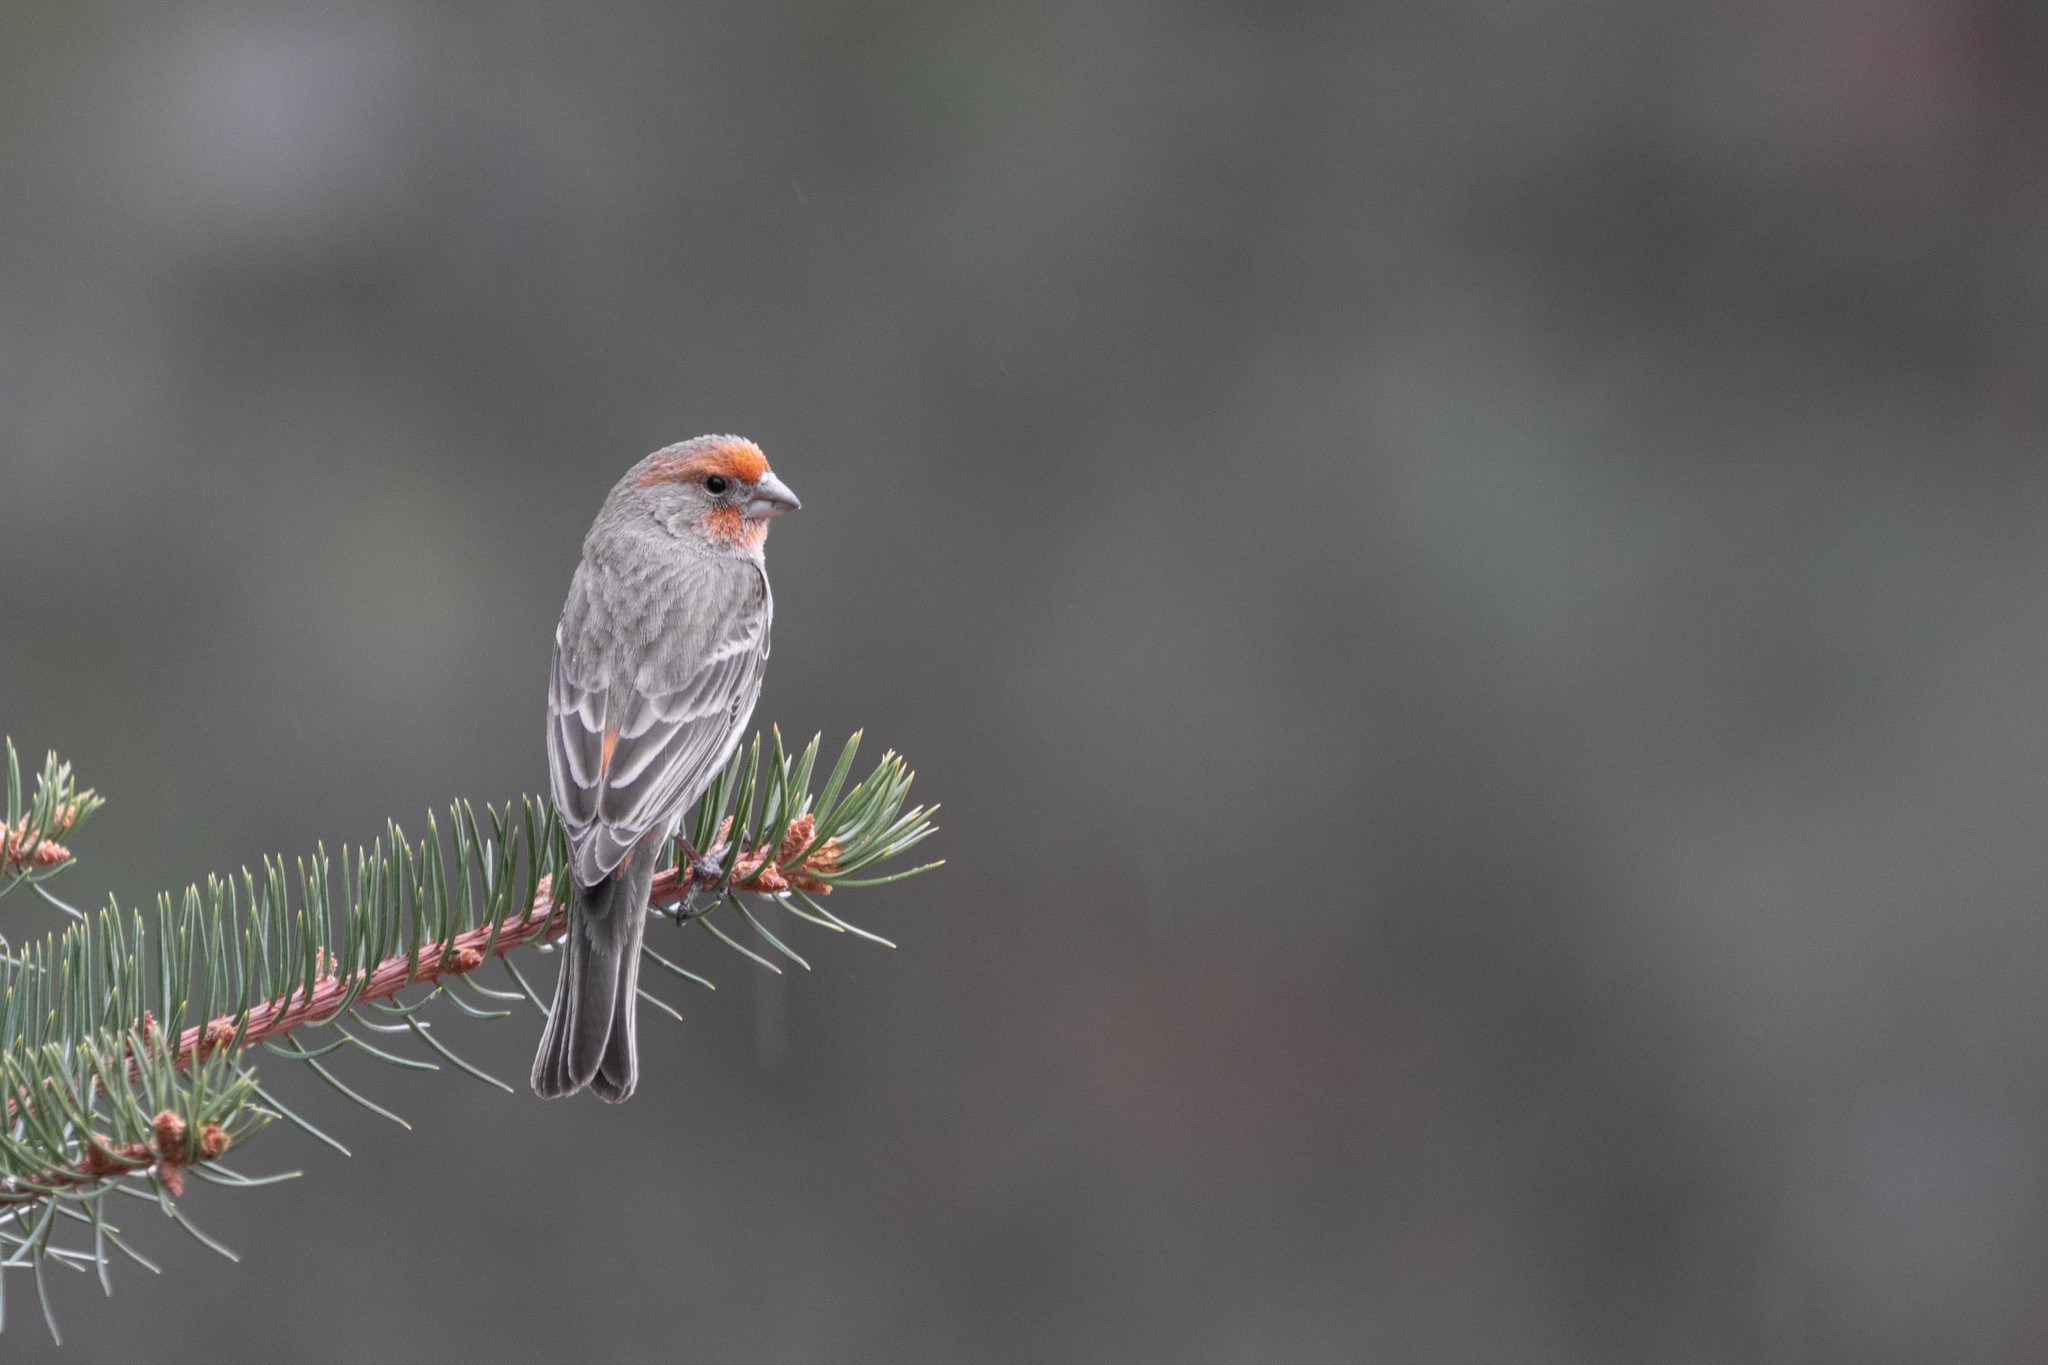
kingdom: Animalia
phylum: Chordata
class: Aves
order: Passeriformes
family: Fringillidae
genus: Haemorhous
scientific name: Haemorhous mexicanus
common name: House finch
